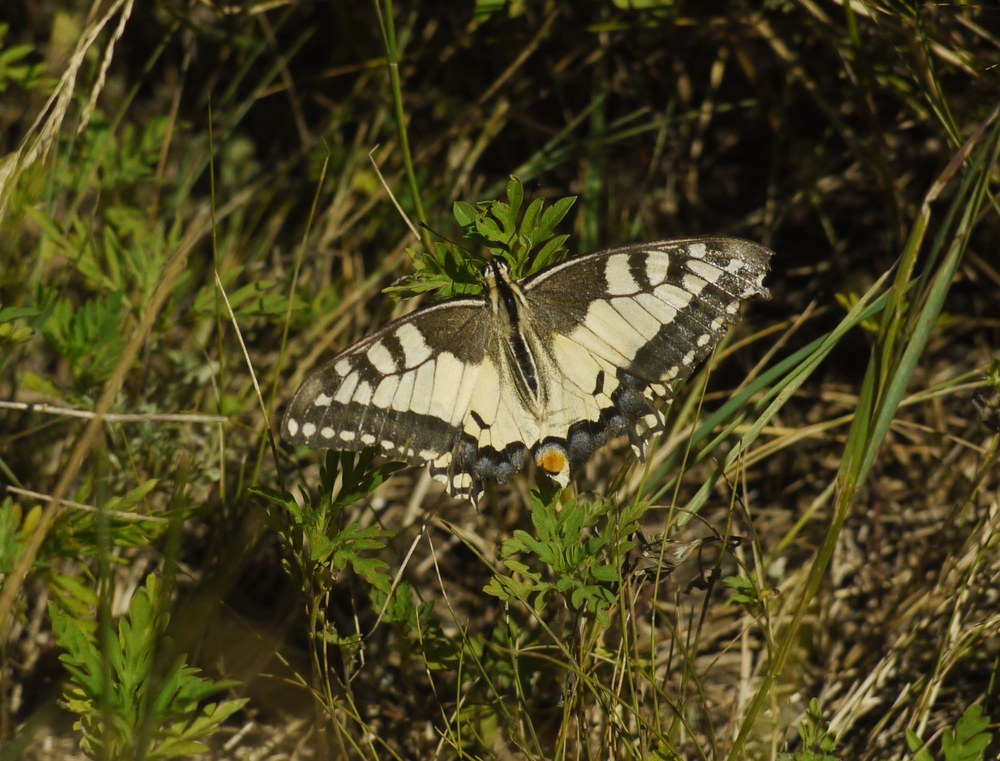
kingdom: Animalia
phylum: Arthropoda
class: Insecta
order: Lepidoptera
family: Papilionidae
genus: Papilio
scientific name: Papilio machaon
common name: Swallowtail
